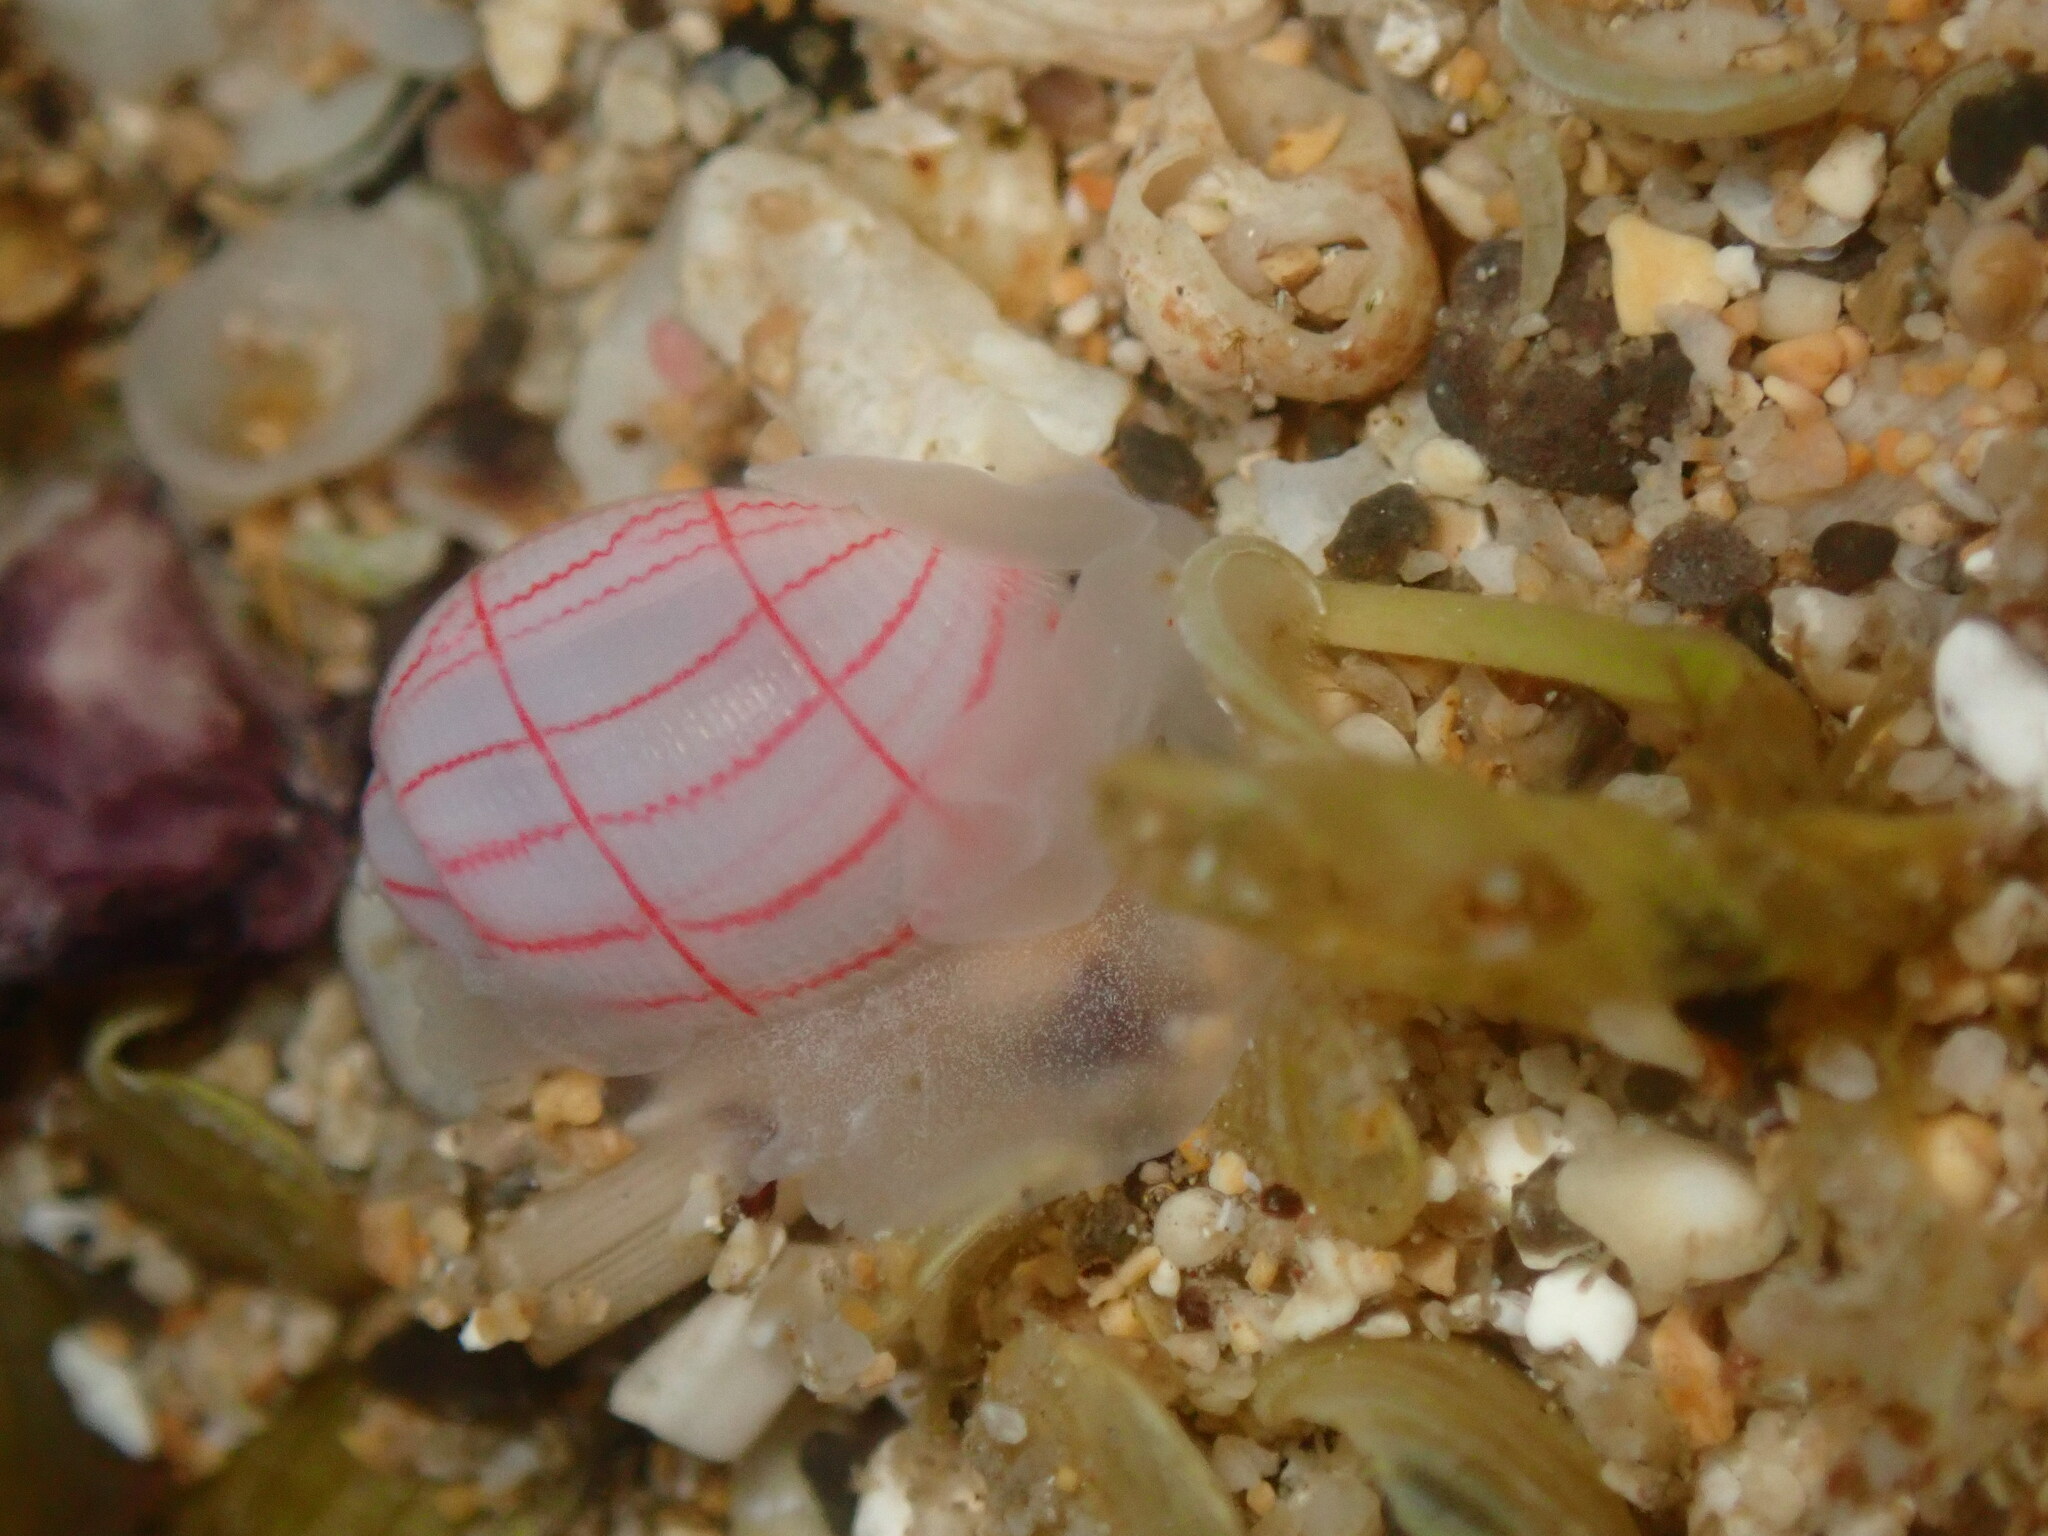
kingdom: Animalia
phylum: Mollusca
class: Gastropoda
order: Cephalaspidea
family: Aplustridae
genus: Bullina
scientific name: Bullina lineata
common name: Lined bubble snail
